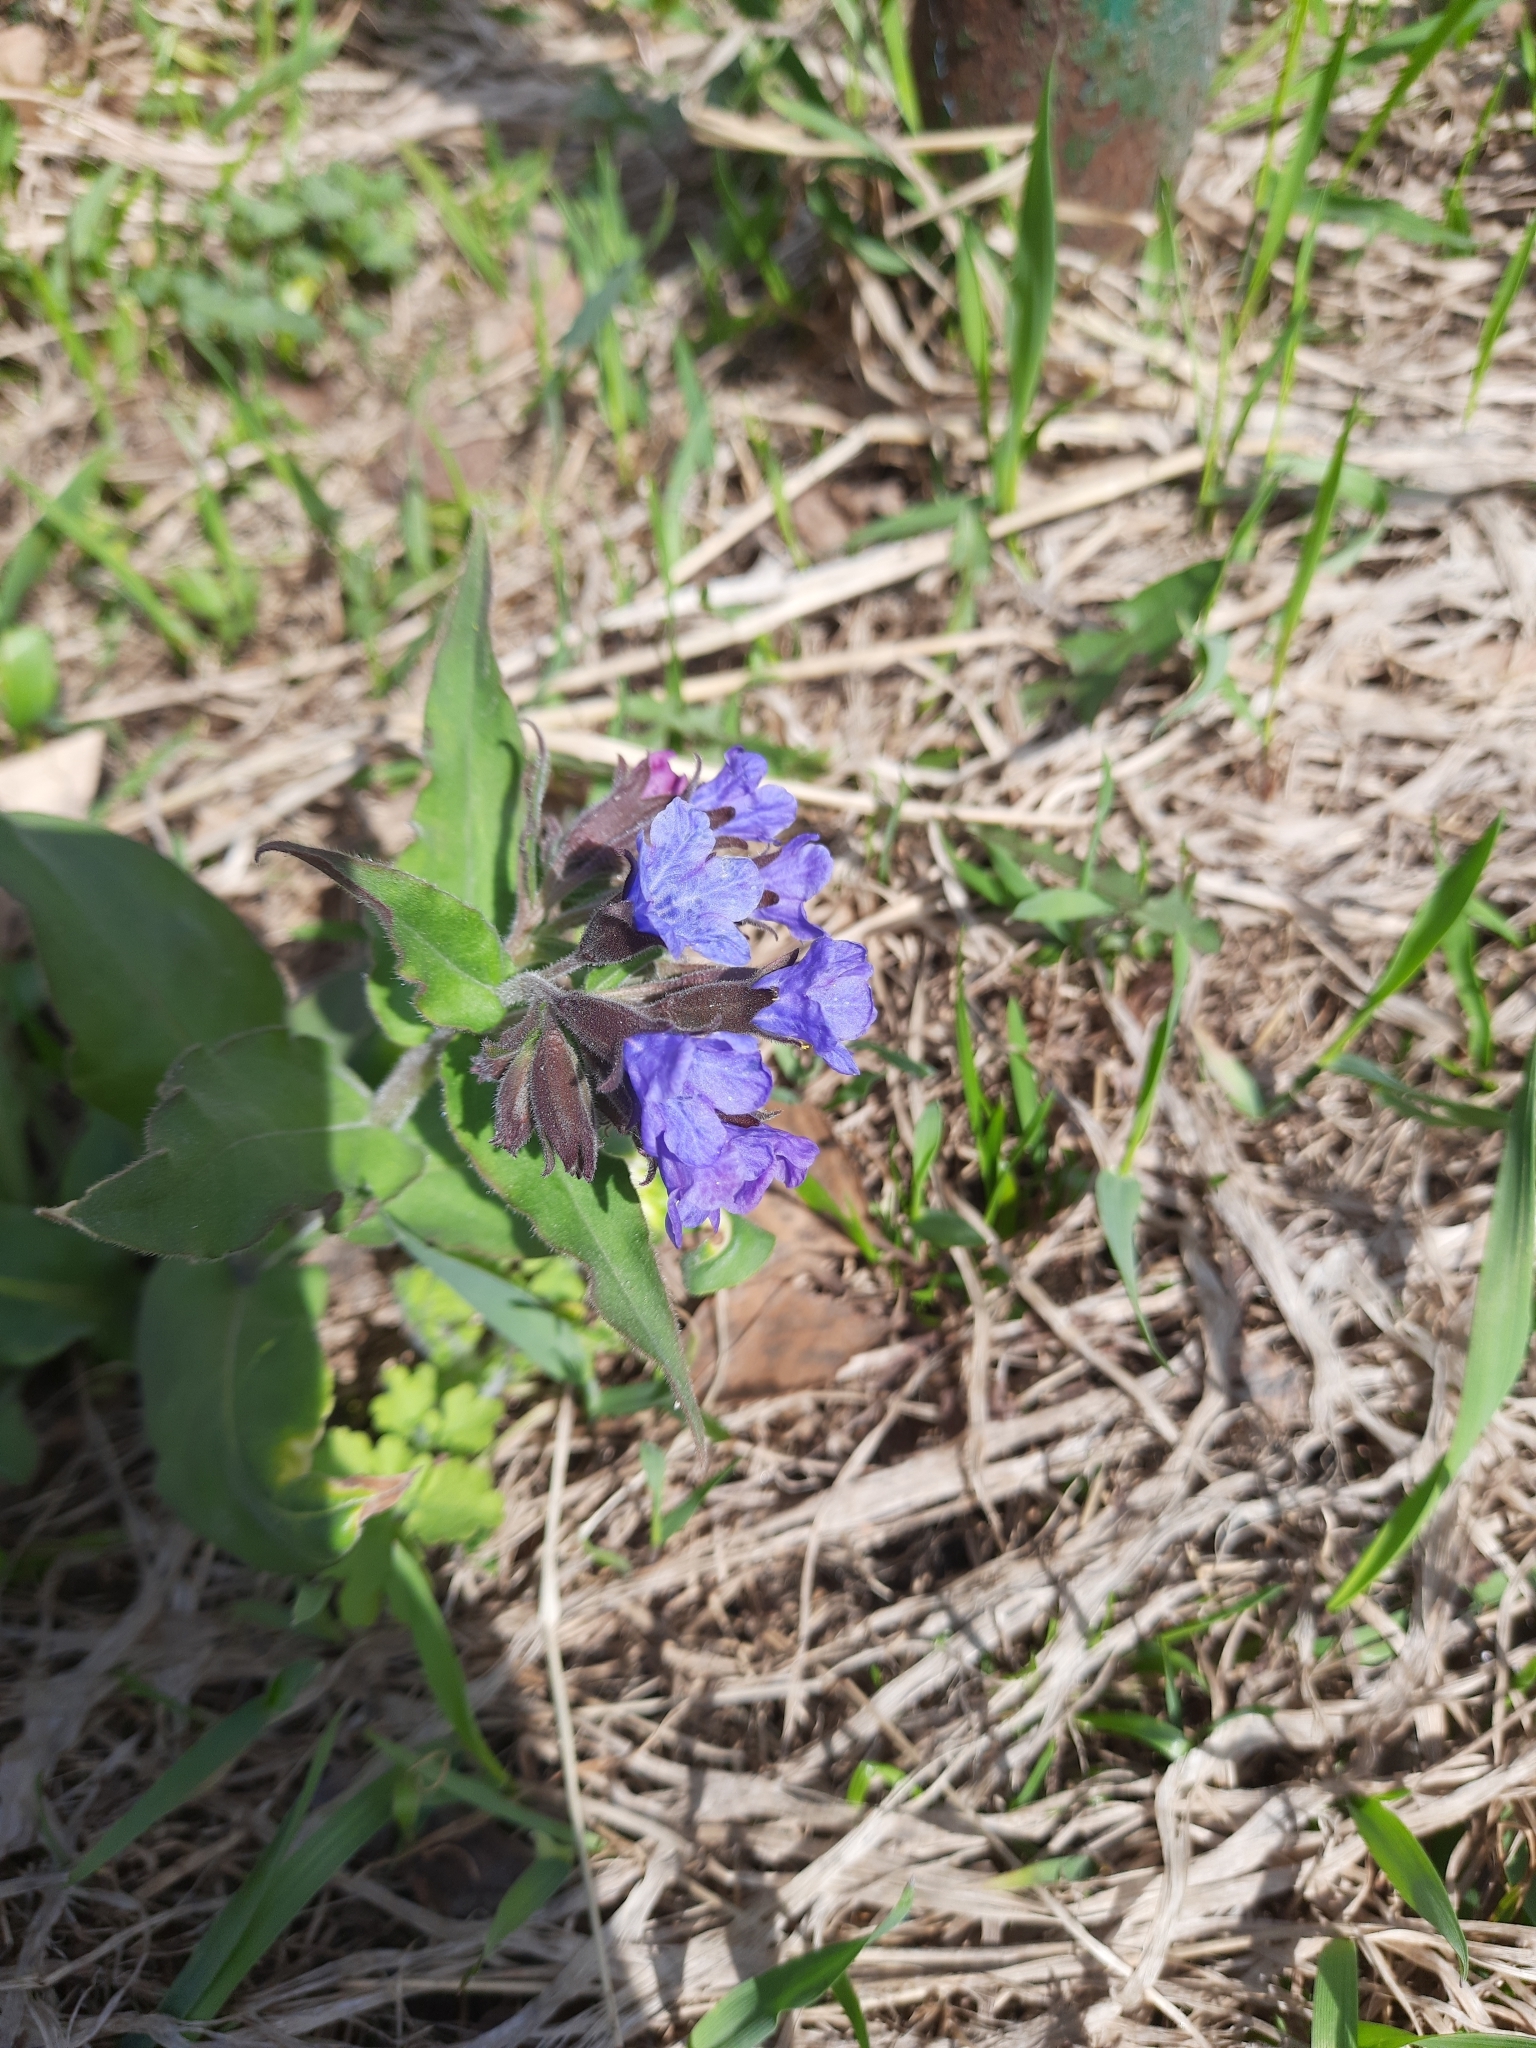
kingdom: Plantae
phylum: Tracheophyta
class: Magnoliopsida
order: Boraginales
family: Boraginaceae
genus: Pulmonaria
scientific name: Pulmonaria mollis
